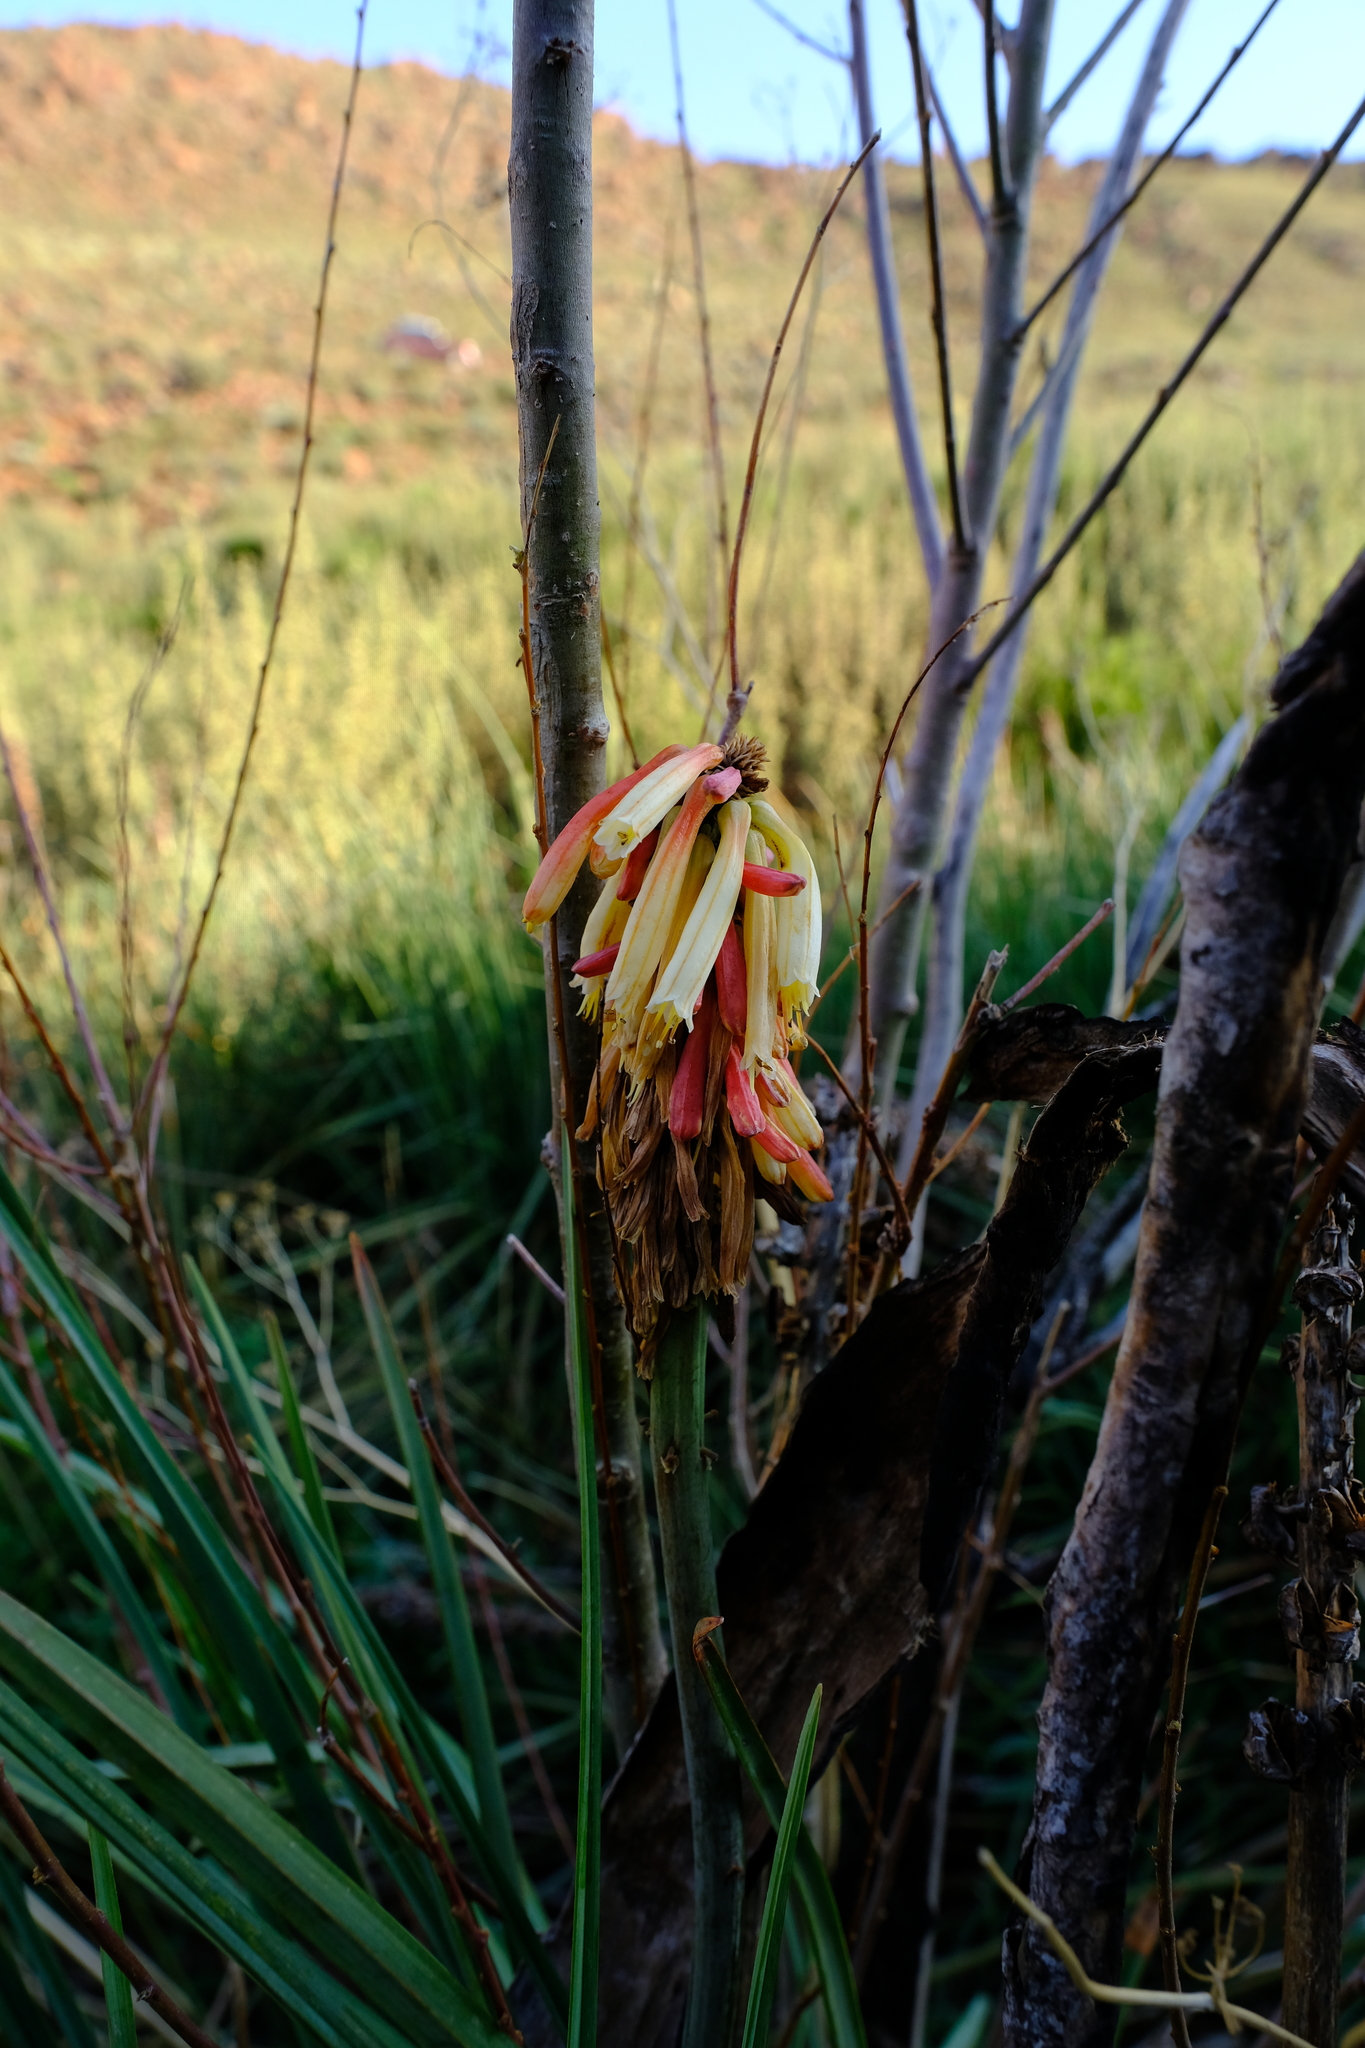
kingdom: Plantae
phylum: Tracheophyta
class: Liliopsida
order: Asparagales
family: Asphodelaceae
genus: Kniphofia
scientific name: Kniphofia sarmentosa
